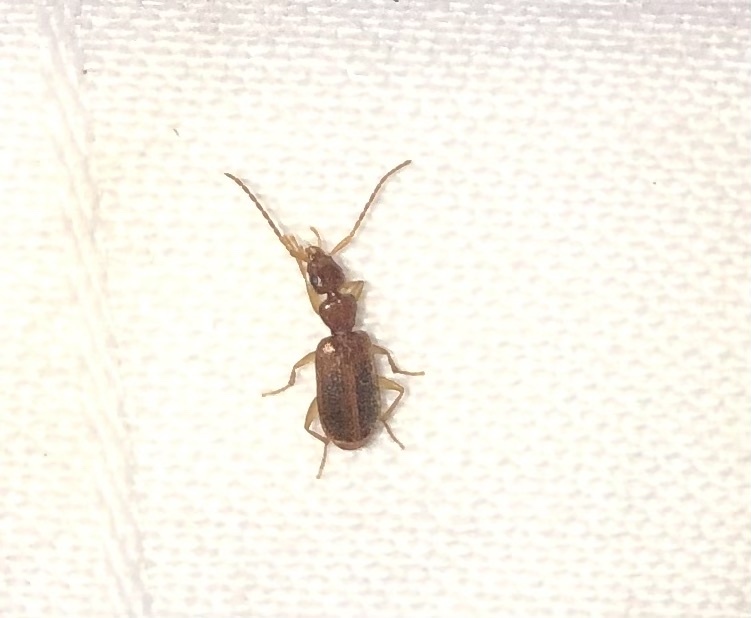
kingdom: Animalia
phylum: Arthropoda
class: Insecta
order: Coleoptera
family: Carabidae
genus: Zuphioides
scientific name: Zuphioides americanum
